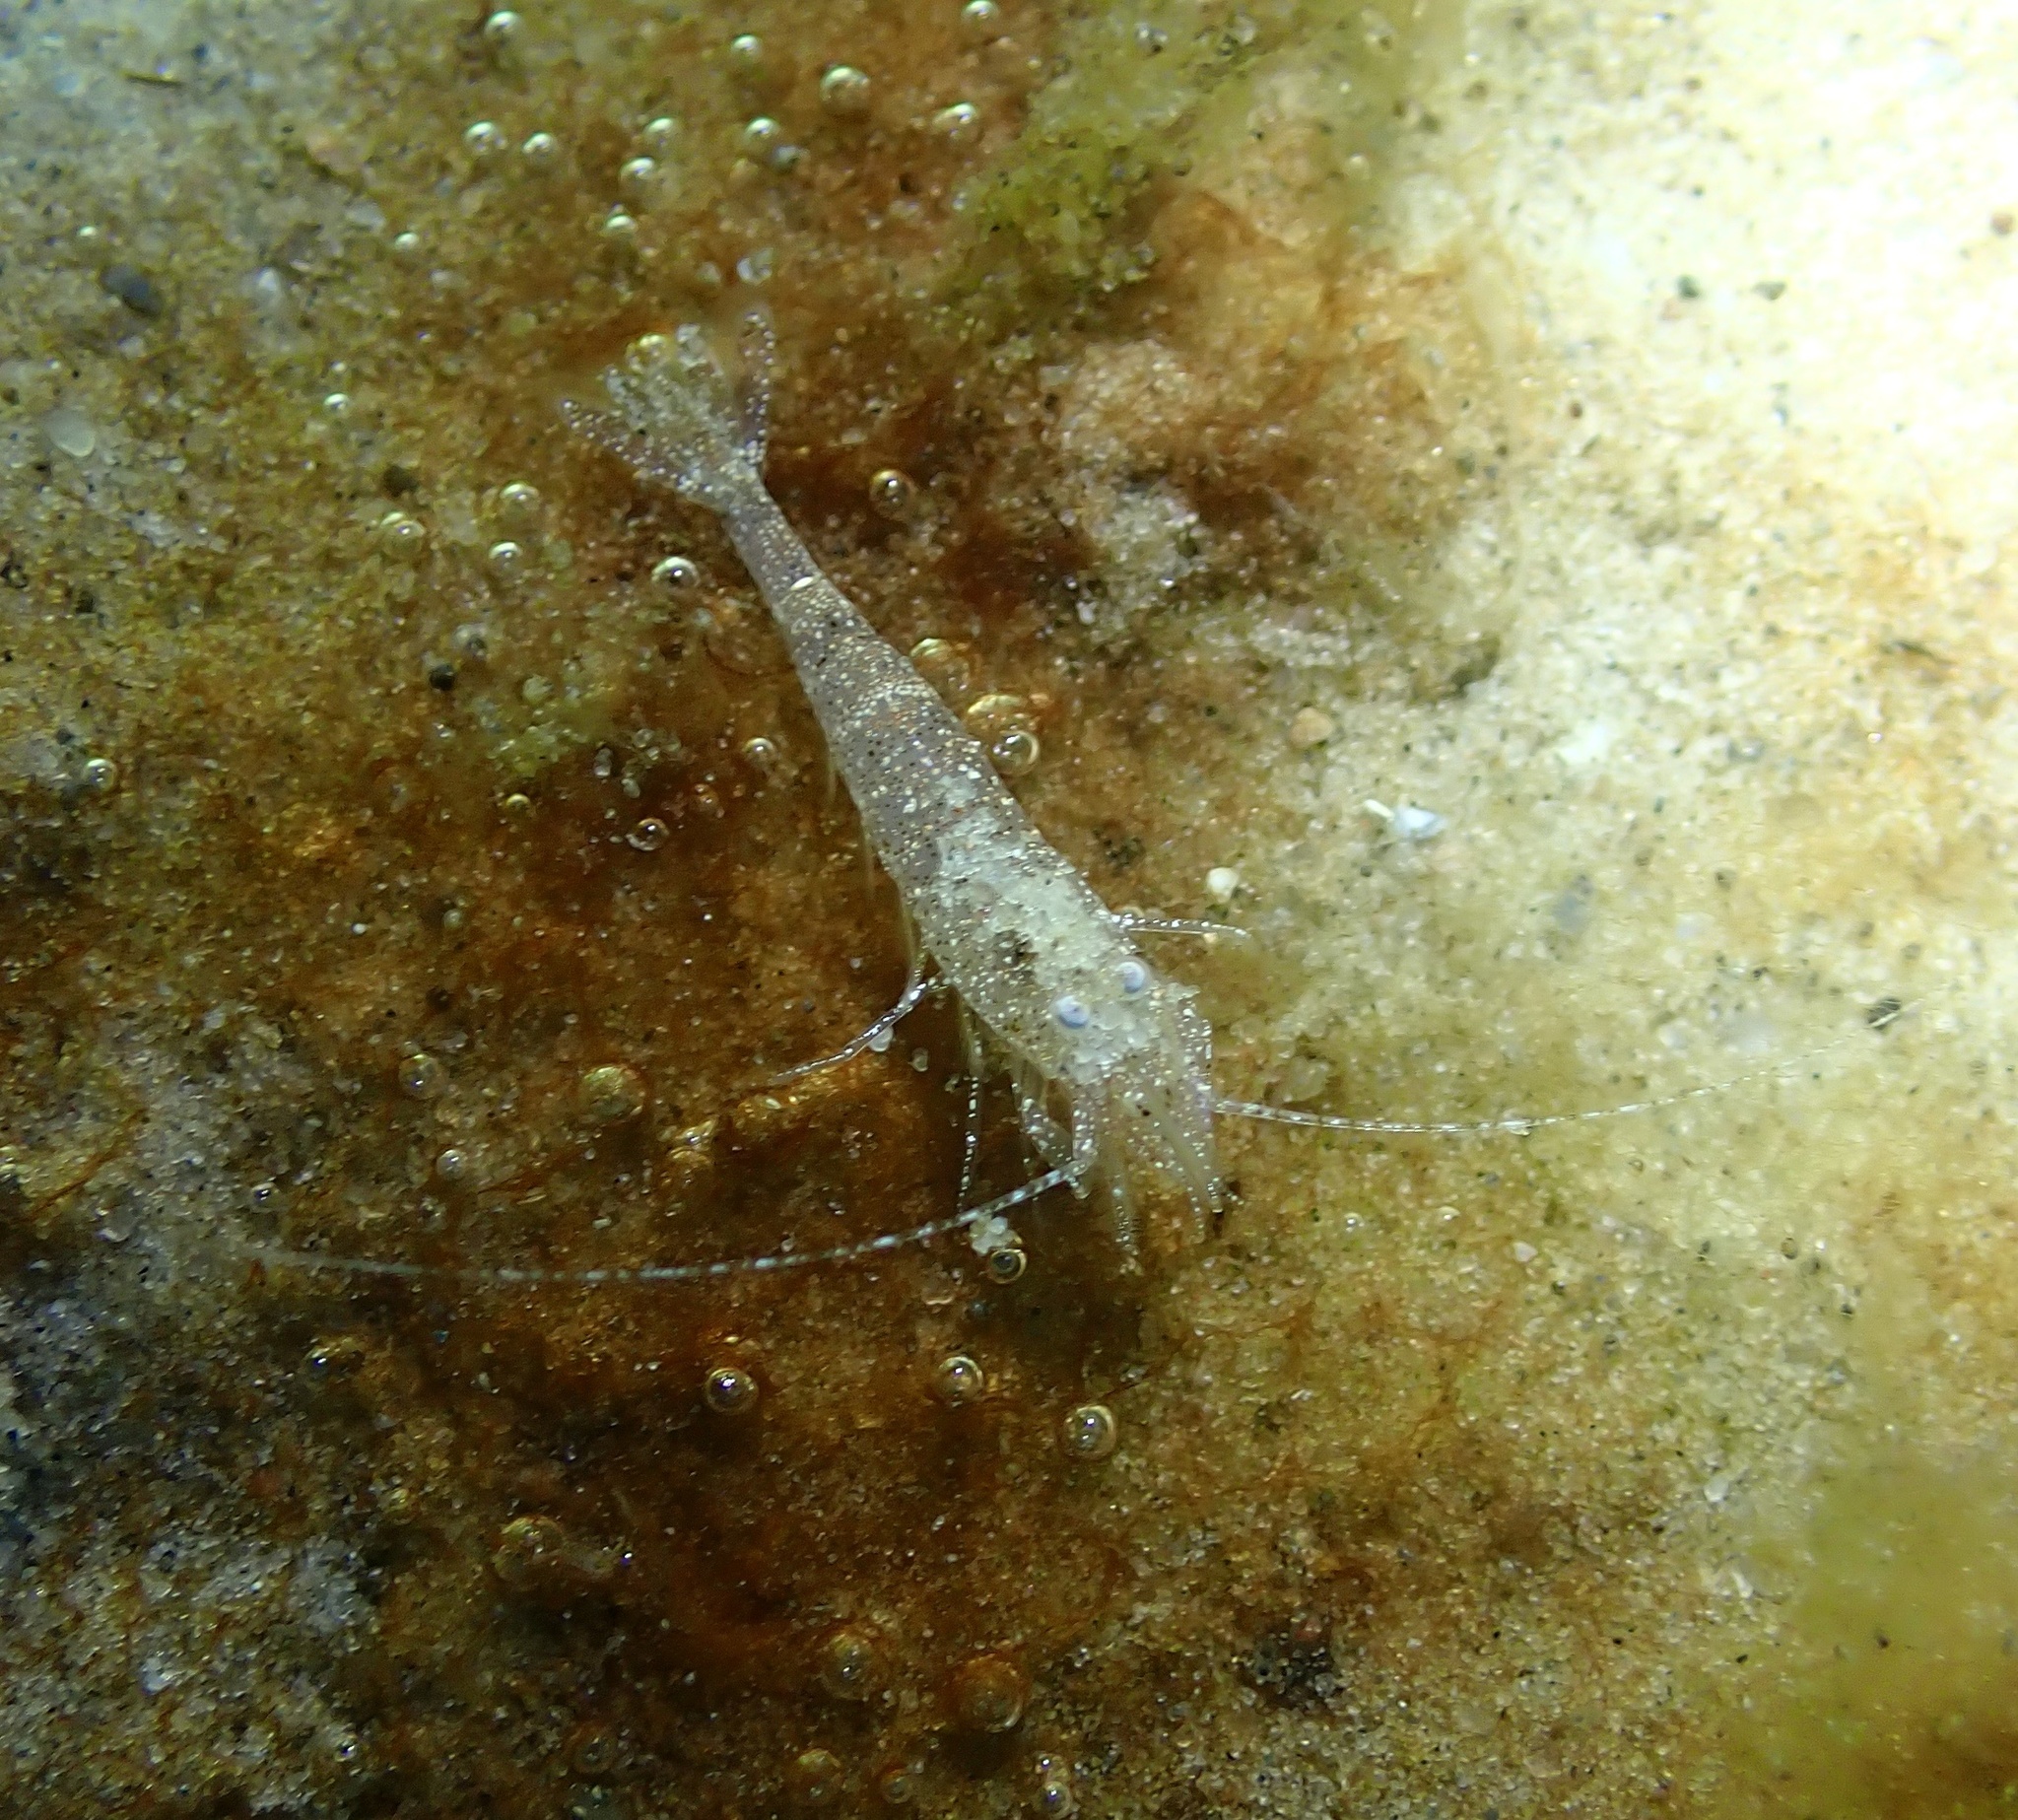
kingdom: Animalia
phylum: Arthropoda
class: Malacostraca
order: Decapoda
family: Crangonidae
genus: Crangon
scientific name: Crangon crangon
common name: Brown shrimp
